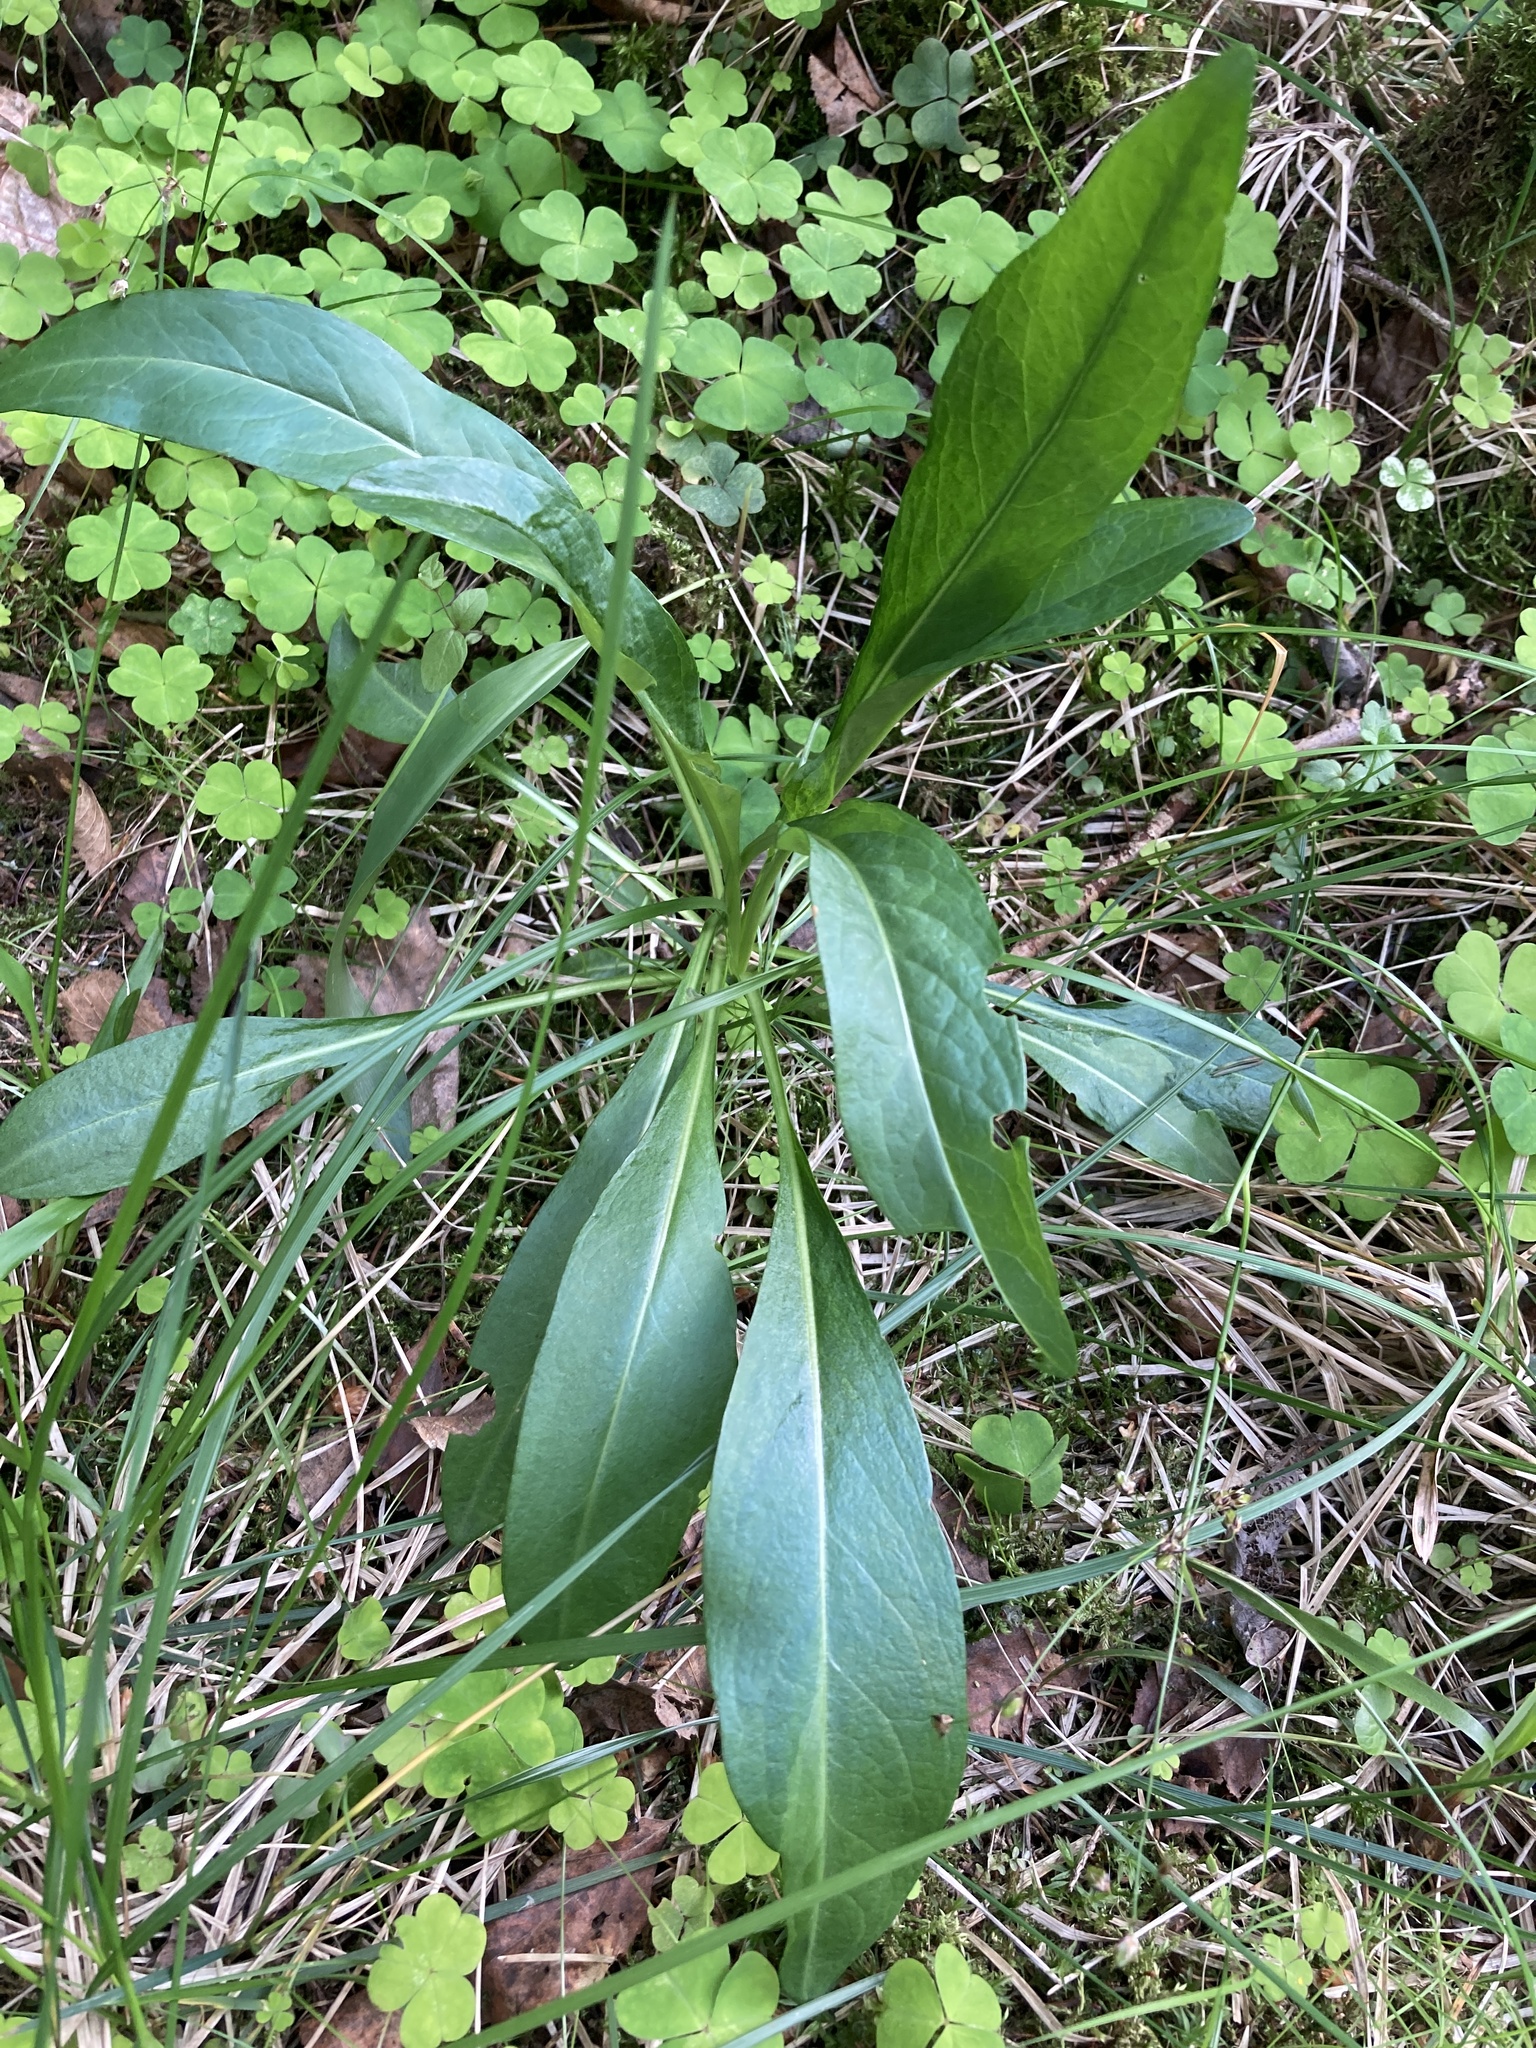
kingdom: Plantae
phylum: Tracheophyta
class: Magnoliopsida
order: Dipsacales
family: Caprifoliaceae
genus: Succisa
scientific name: Succisa pratensis
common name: Devil's-bit
